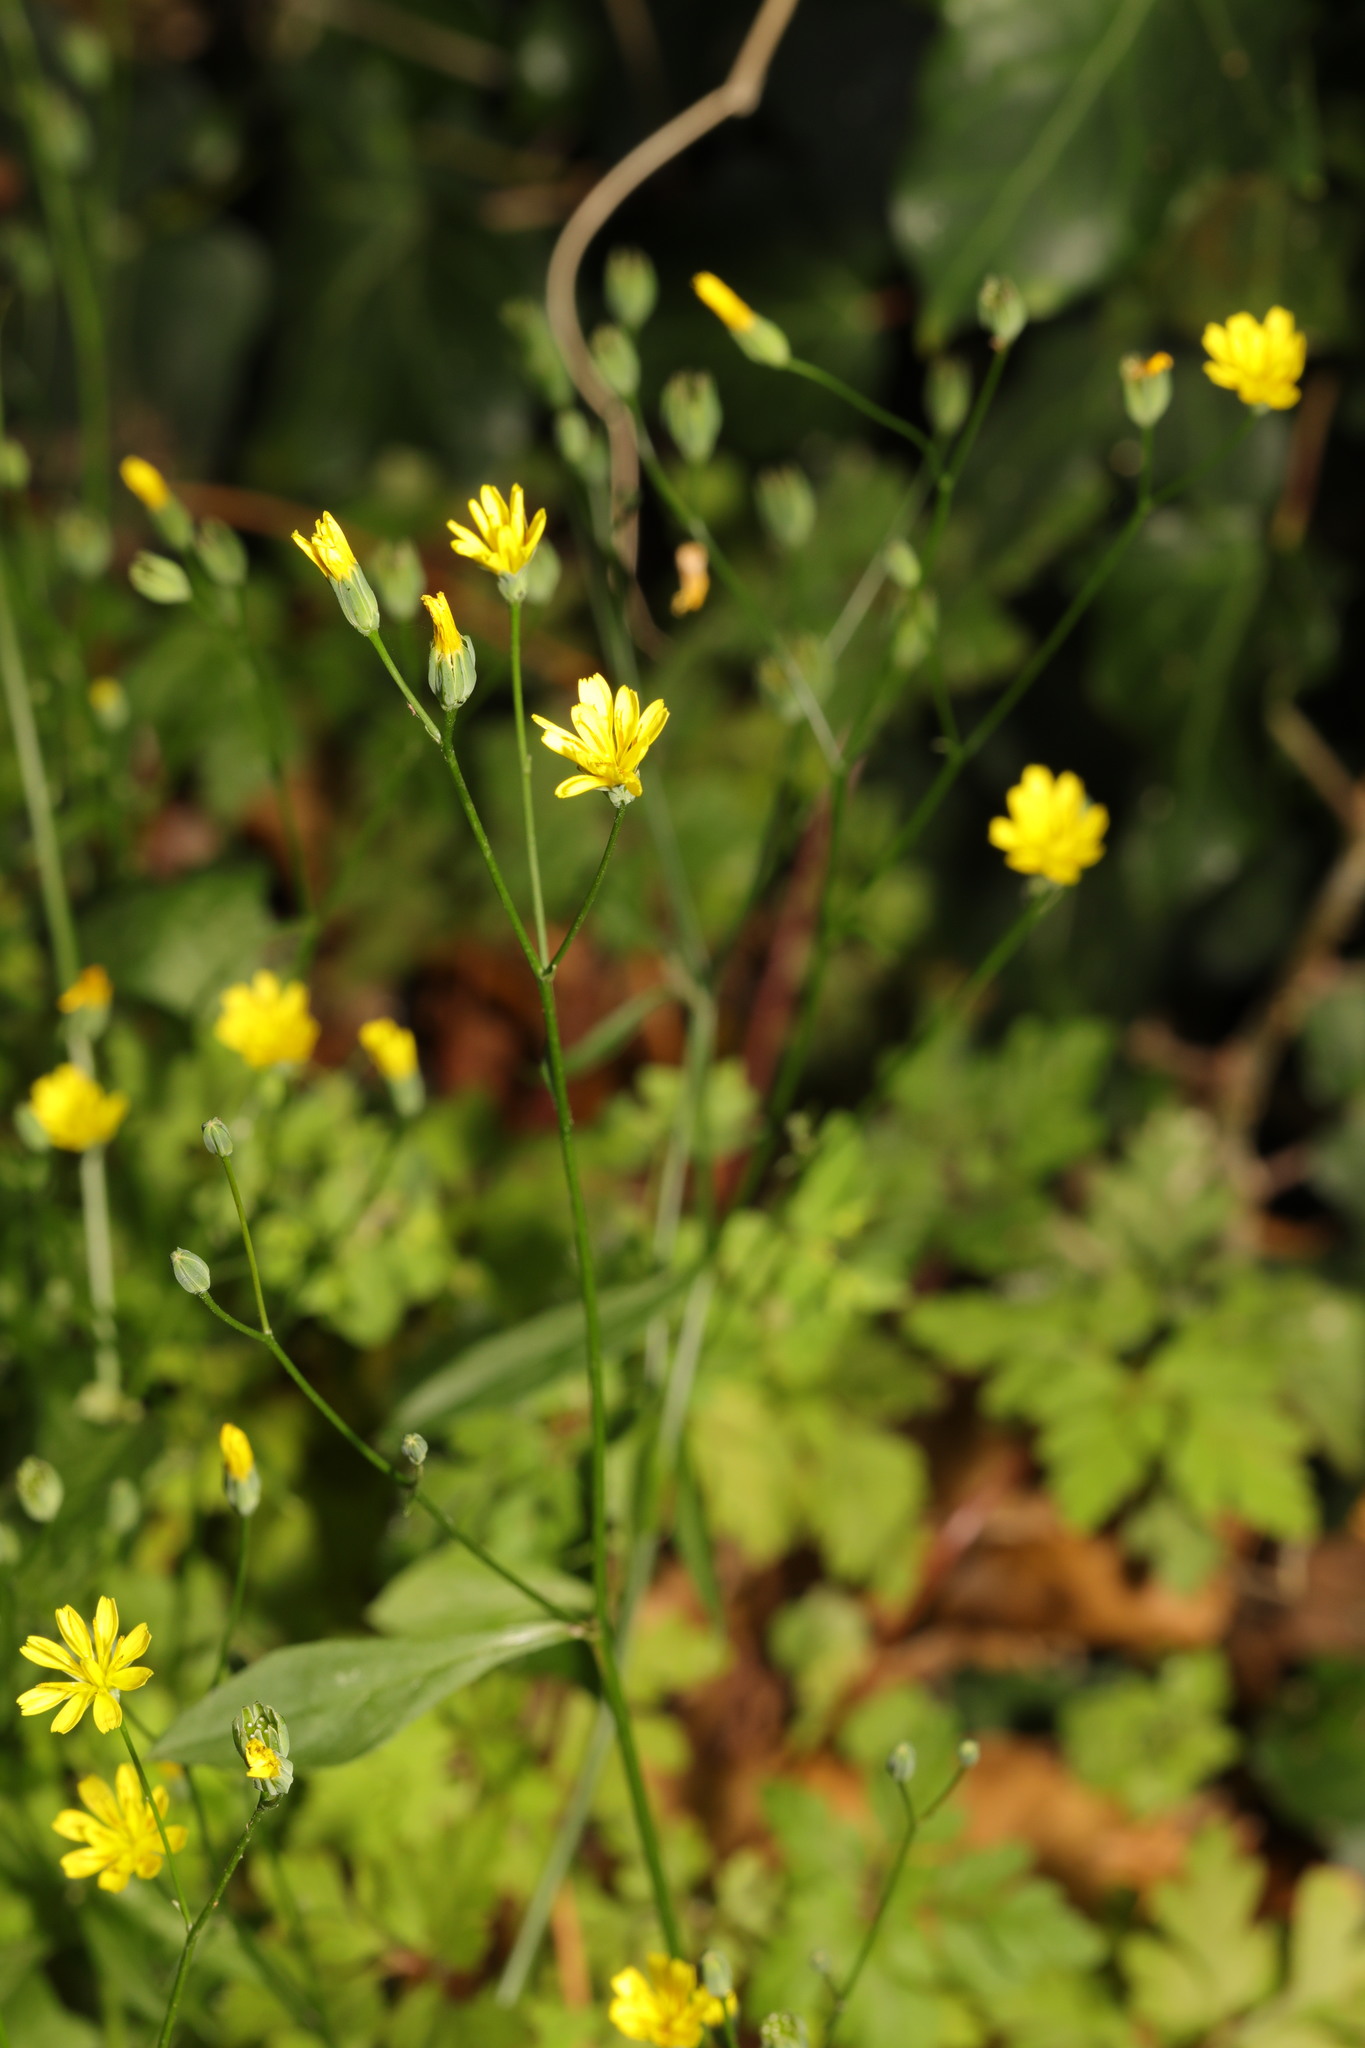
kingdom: Plantae
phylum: Tracheophyta
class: Magnoliopsida
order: Asterales
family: Asteraceae
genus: Lapsana
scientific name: Lapsana communis
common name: Nipplewort
